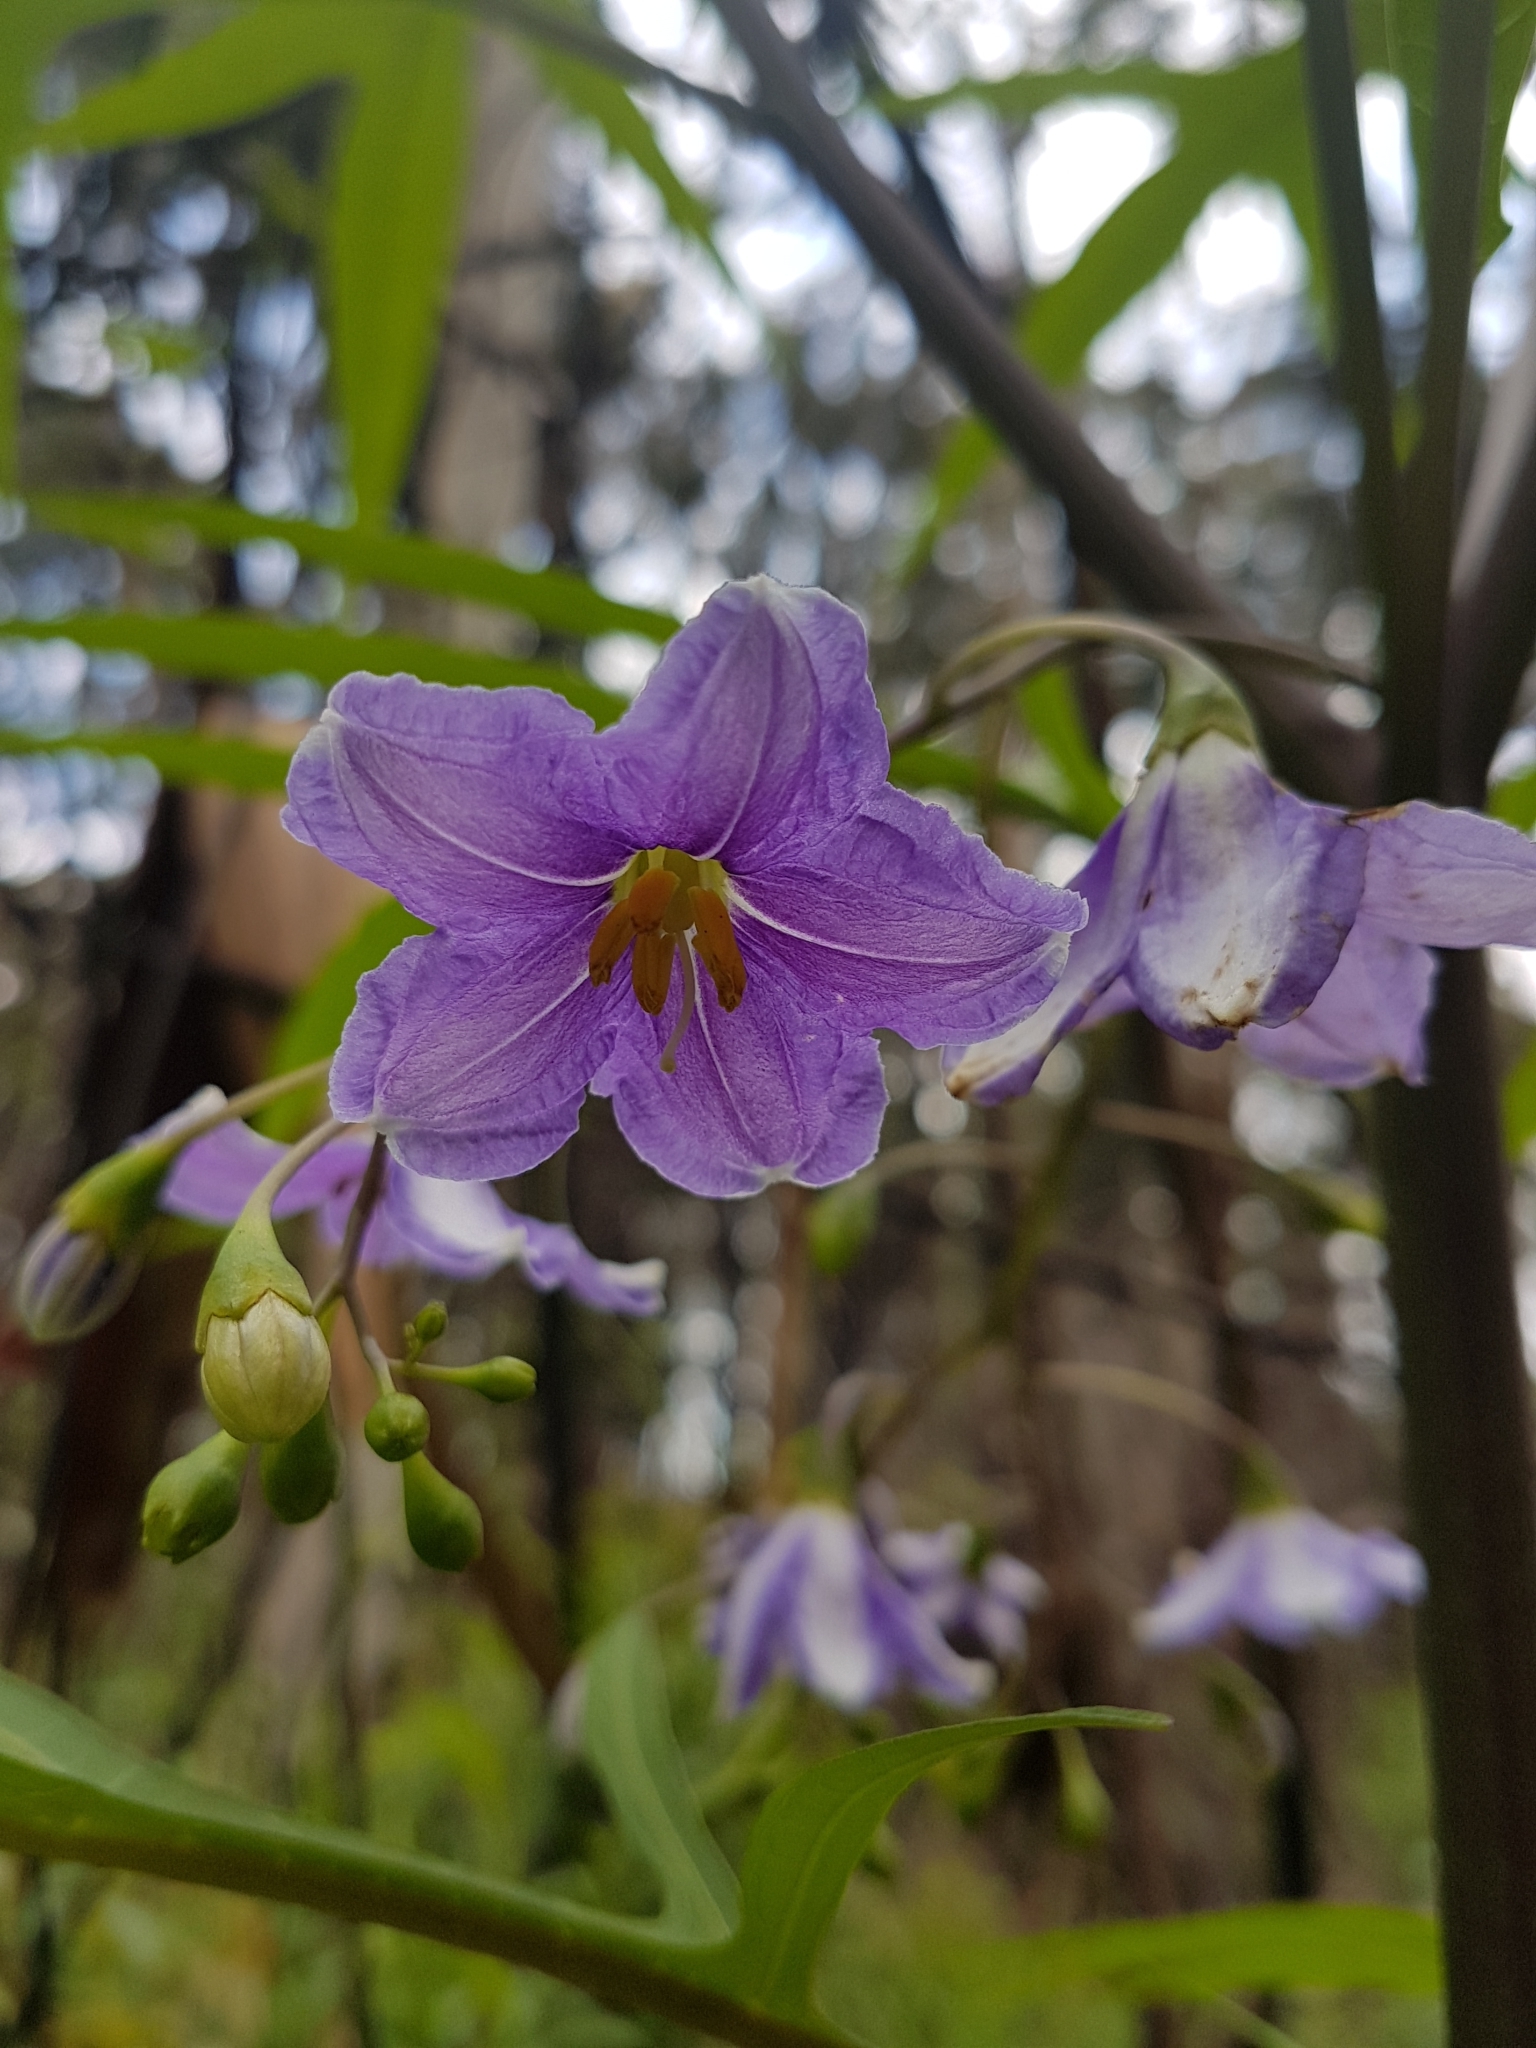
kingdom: Plantae
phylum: Tracheophyta
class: Magnoliopsida
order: Solanales
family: Solanaceae
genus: Solanum
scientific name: Solanum aviculare
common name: New zealand nightshade
